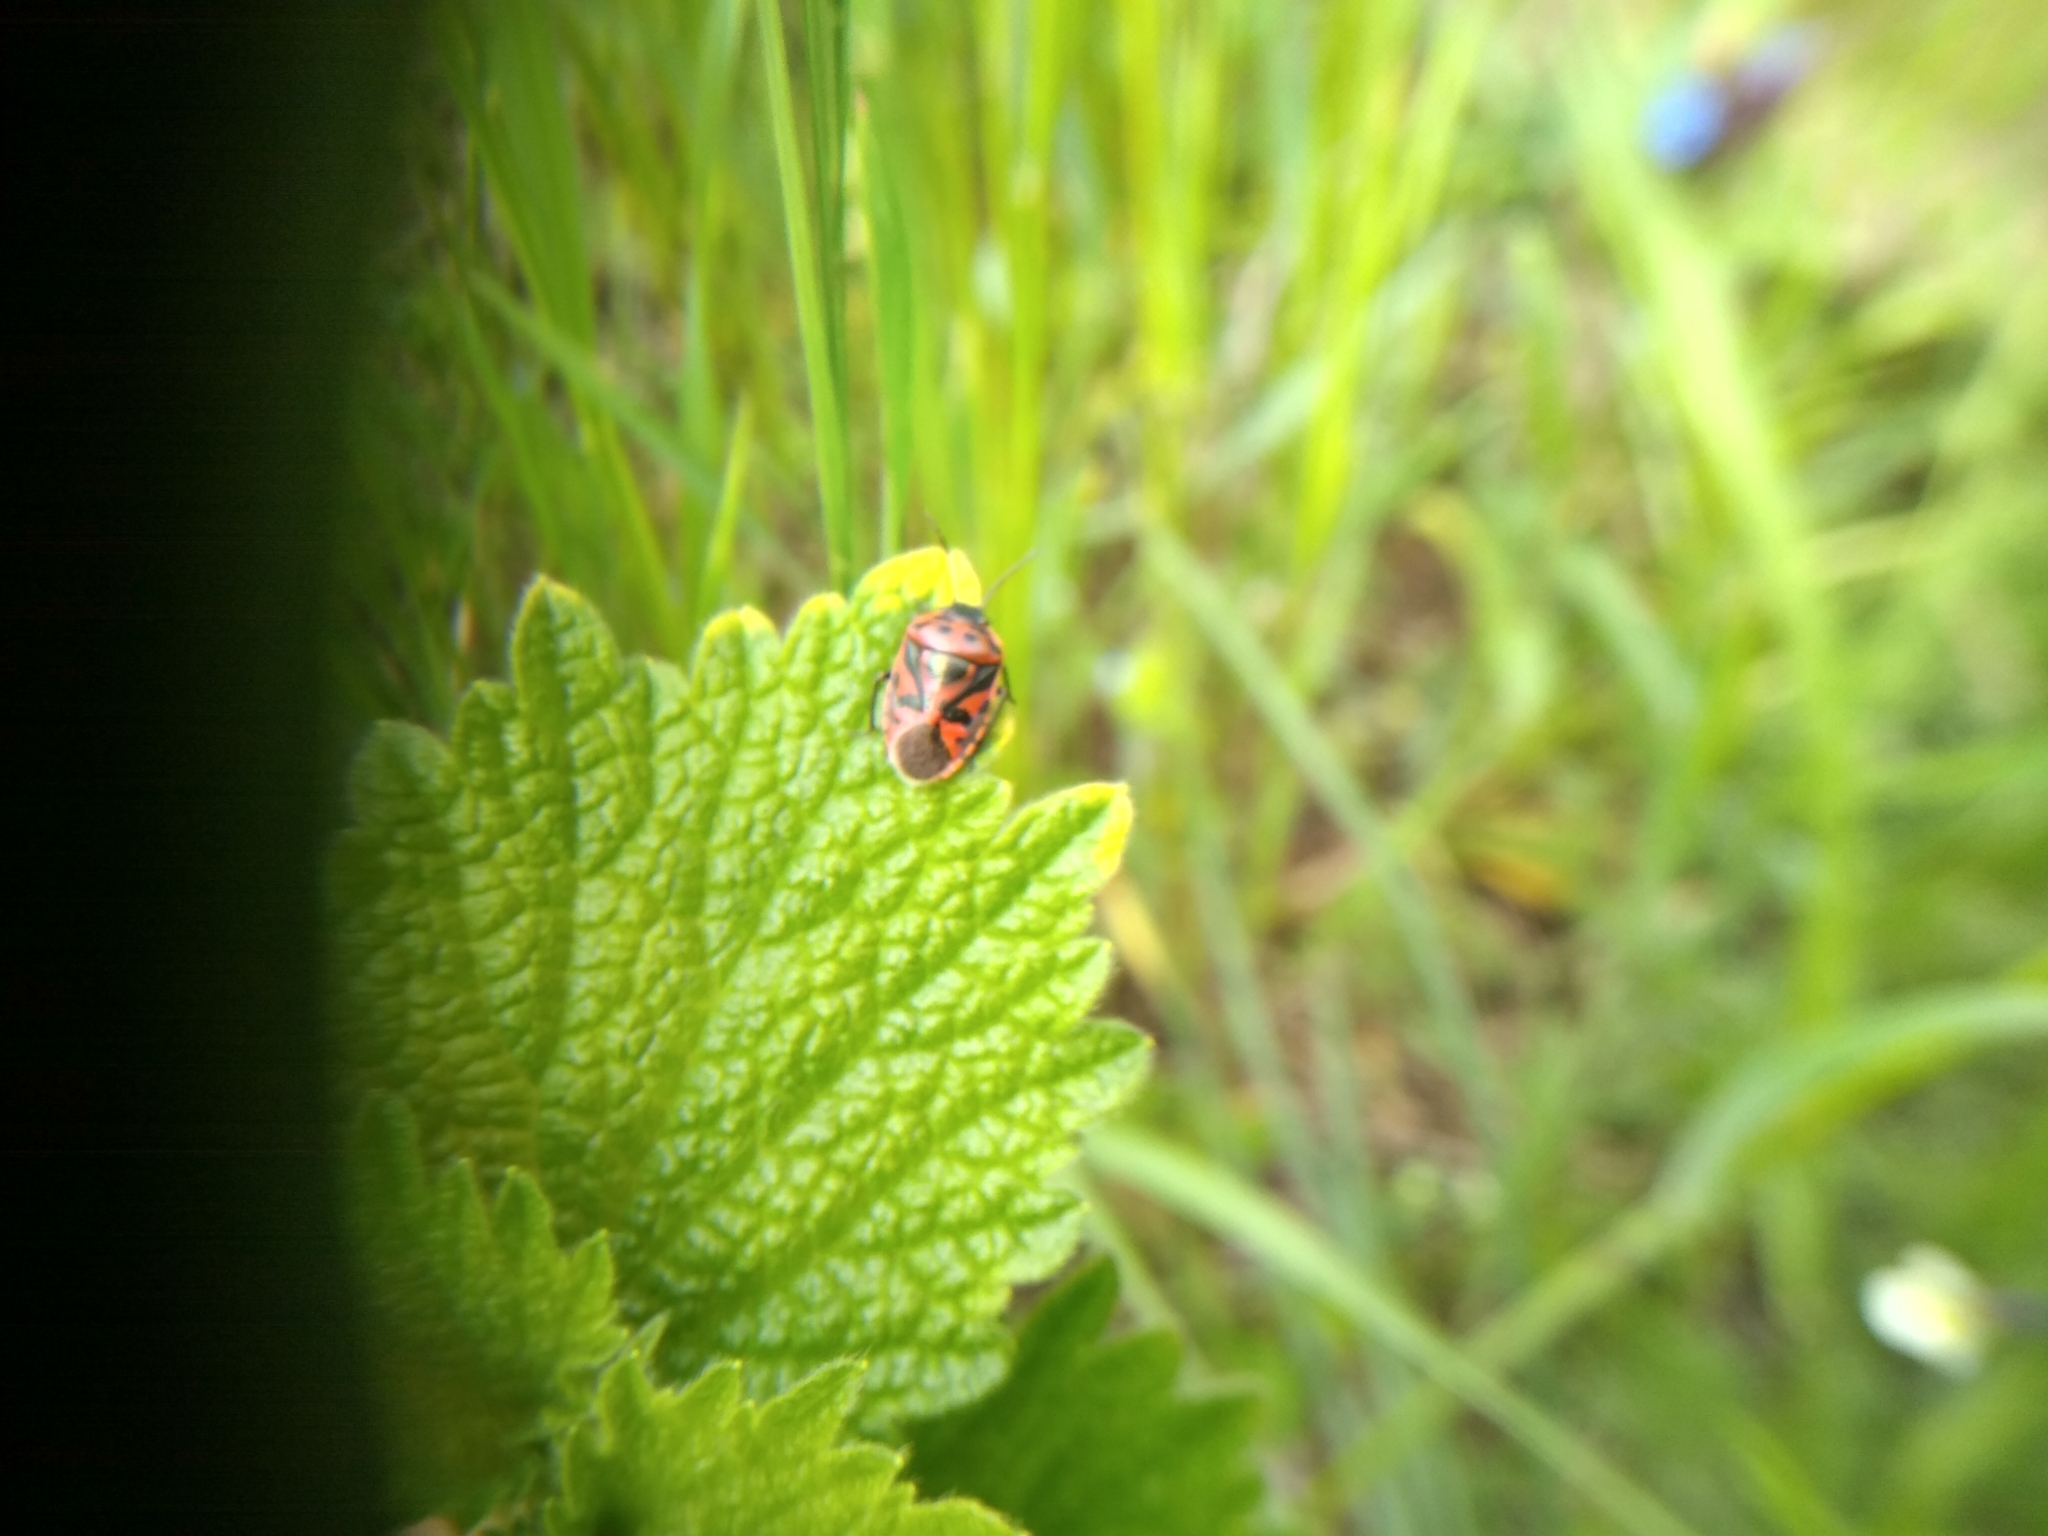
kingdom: Animalia
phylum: Arthropoda
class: Insecta
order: Hemiptera
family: Pentatomidae
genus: Eurydema
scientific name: Eurydema ornata
